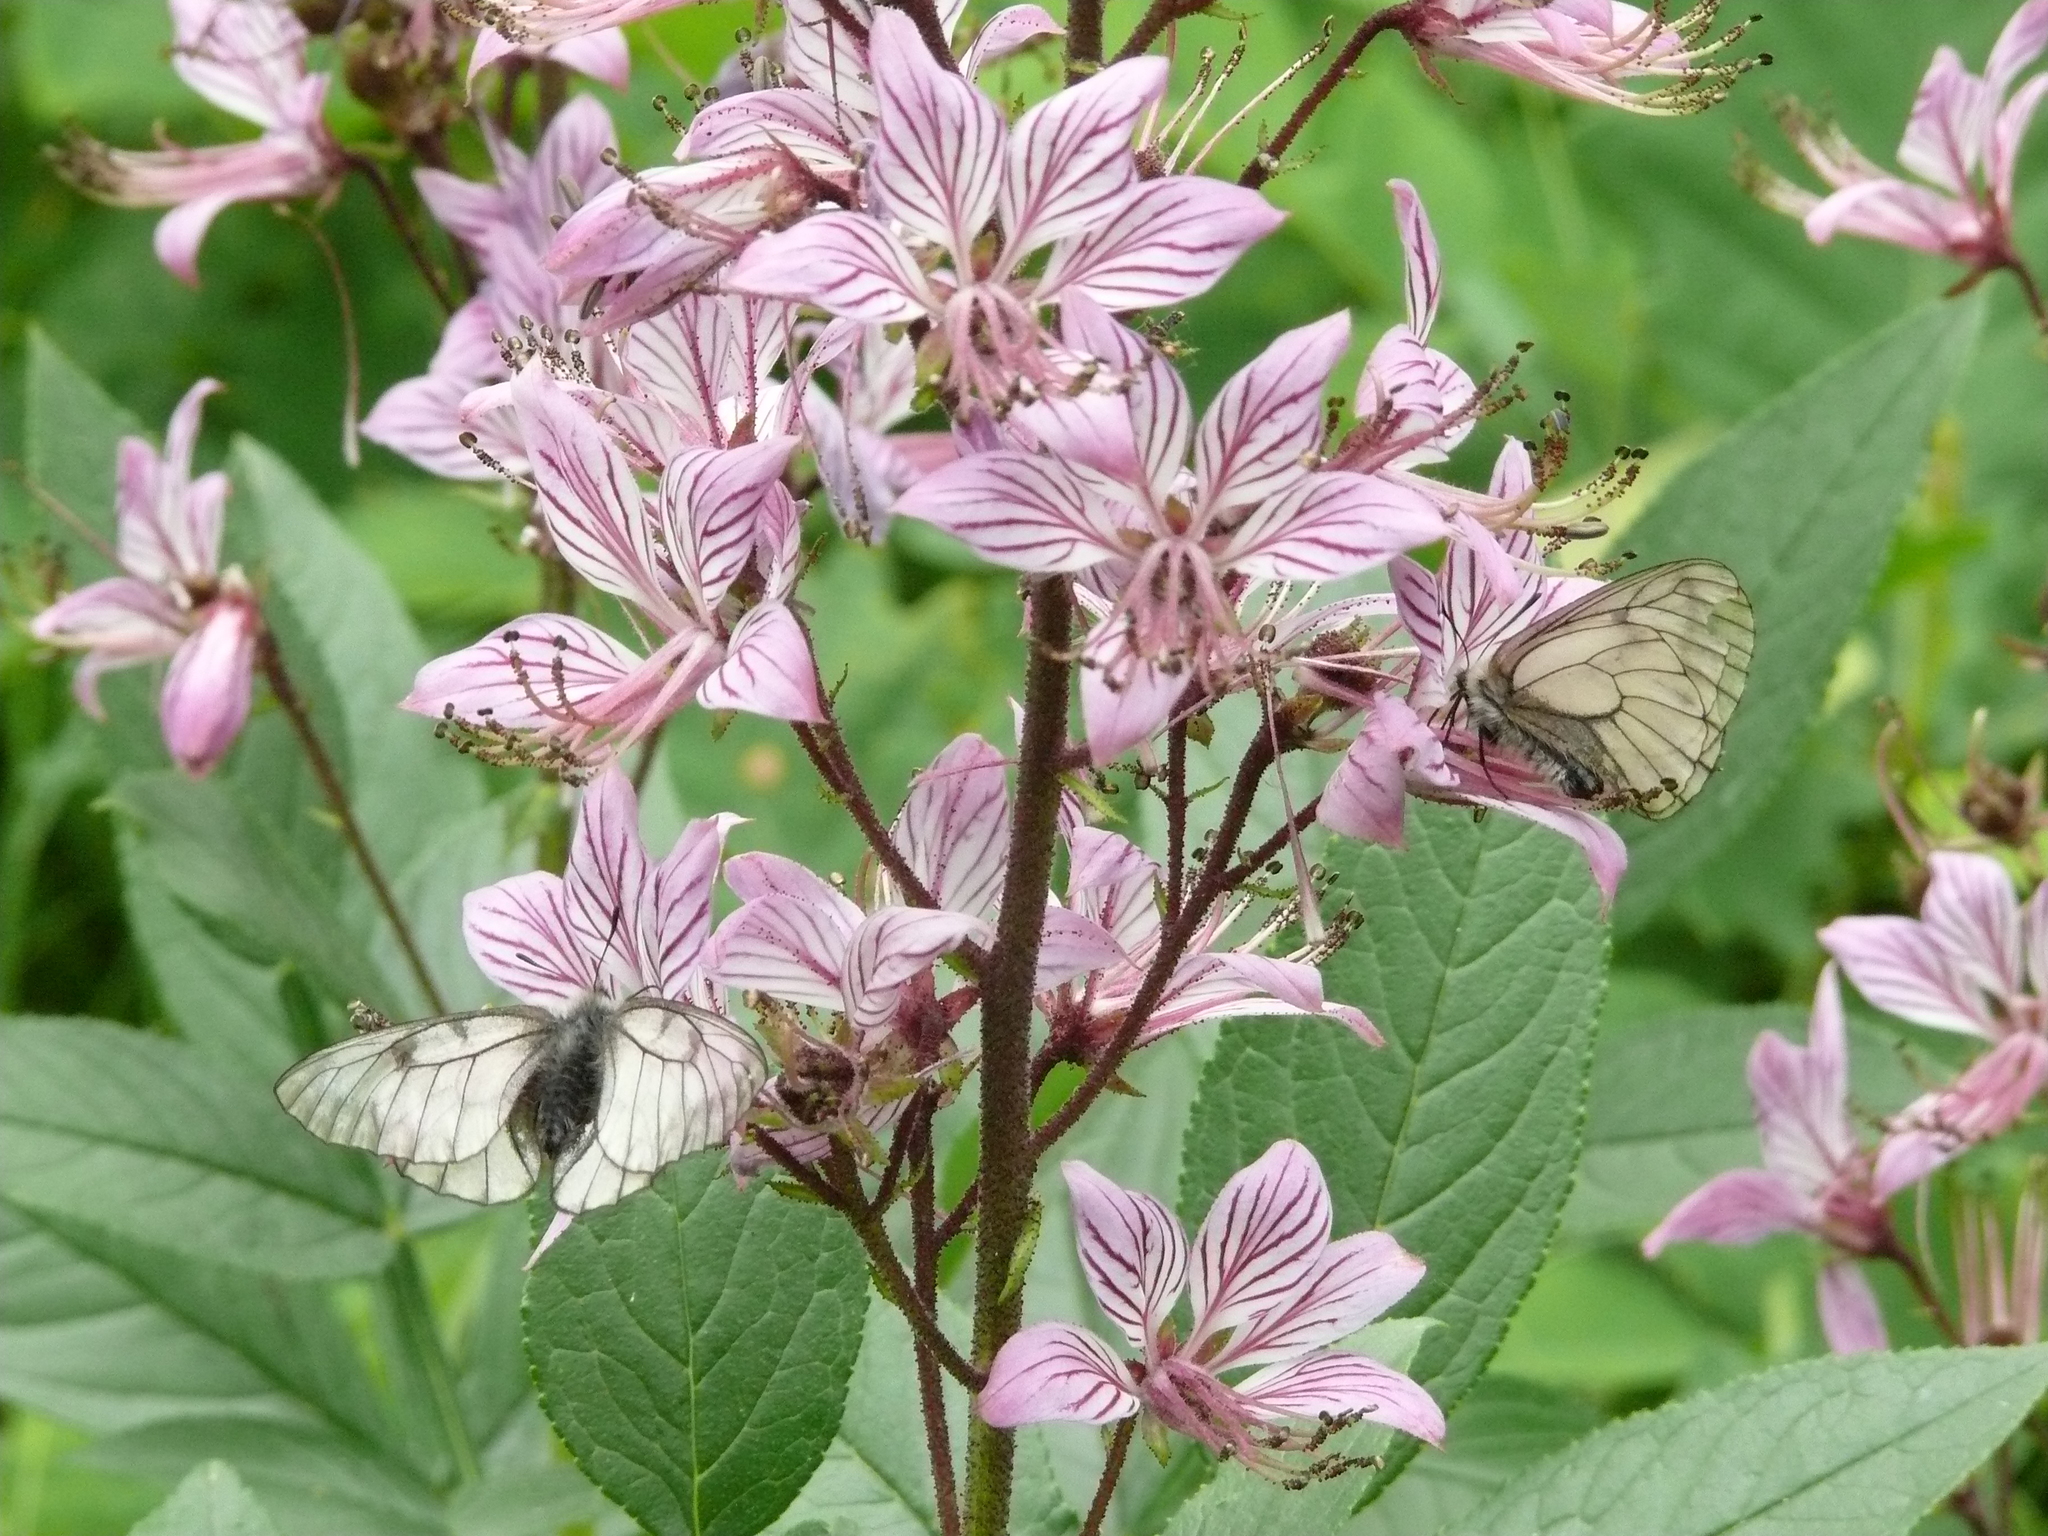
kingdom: Plantae
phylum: Tracheophyta
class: Magnoliopsida
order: Sapindales
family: Rutaceae
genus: Dictamnus
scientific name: Dictamnus dasycarpus
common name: Dense-fruit dittany
